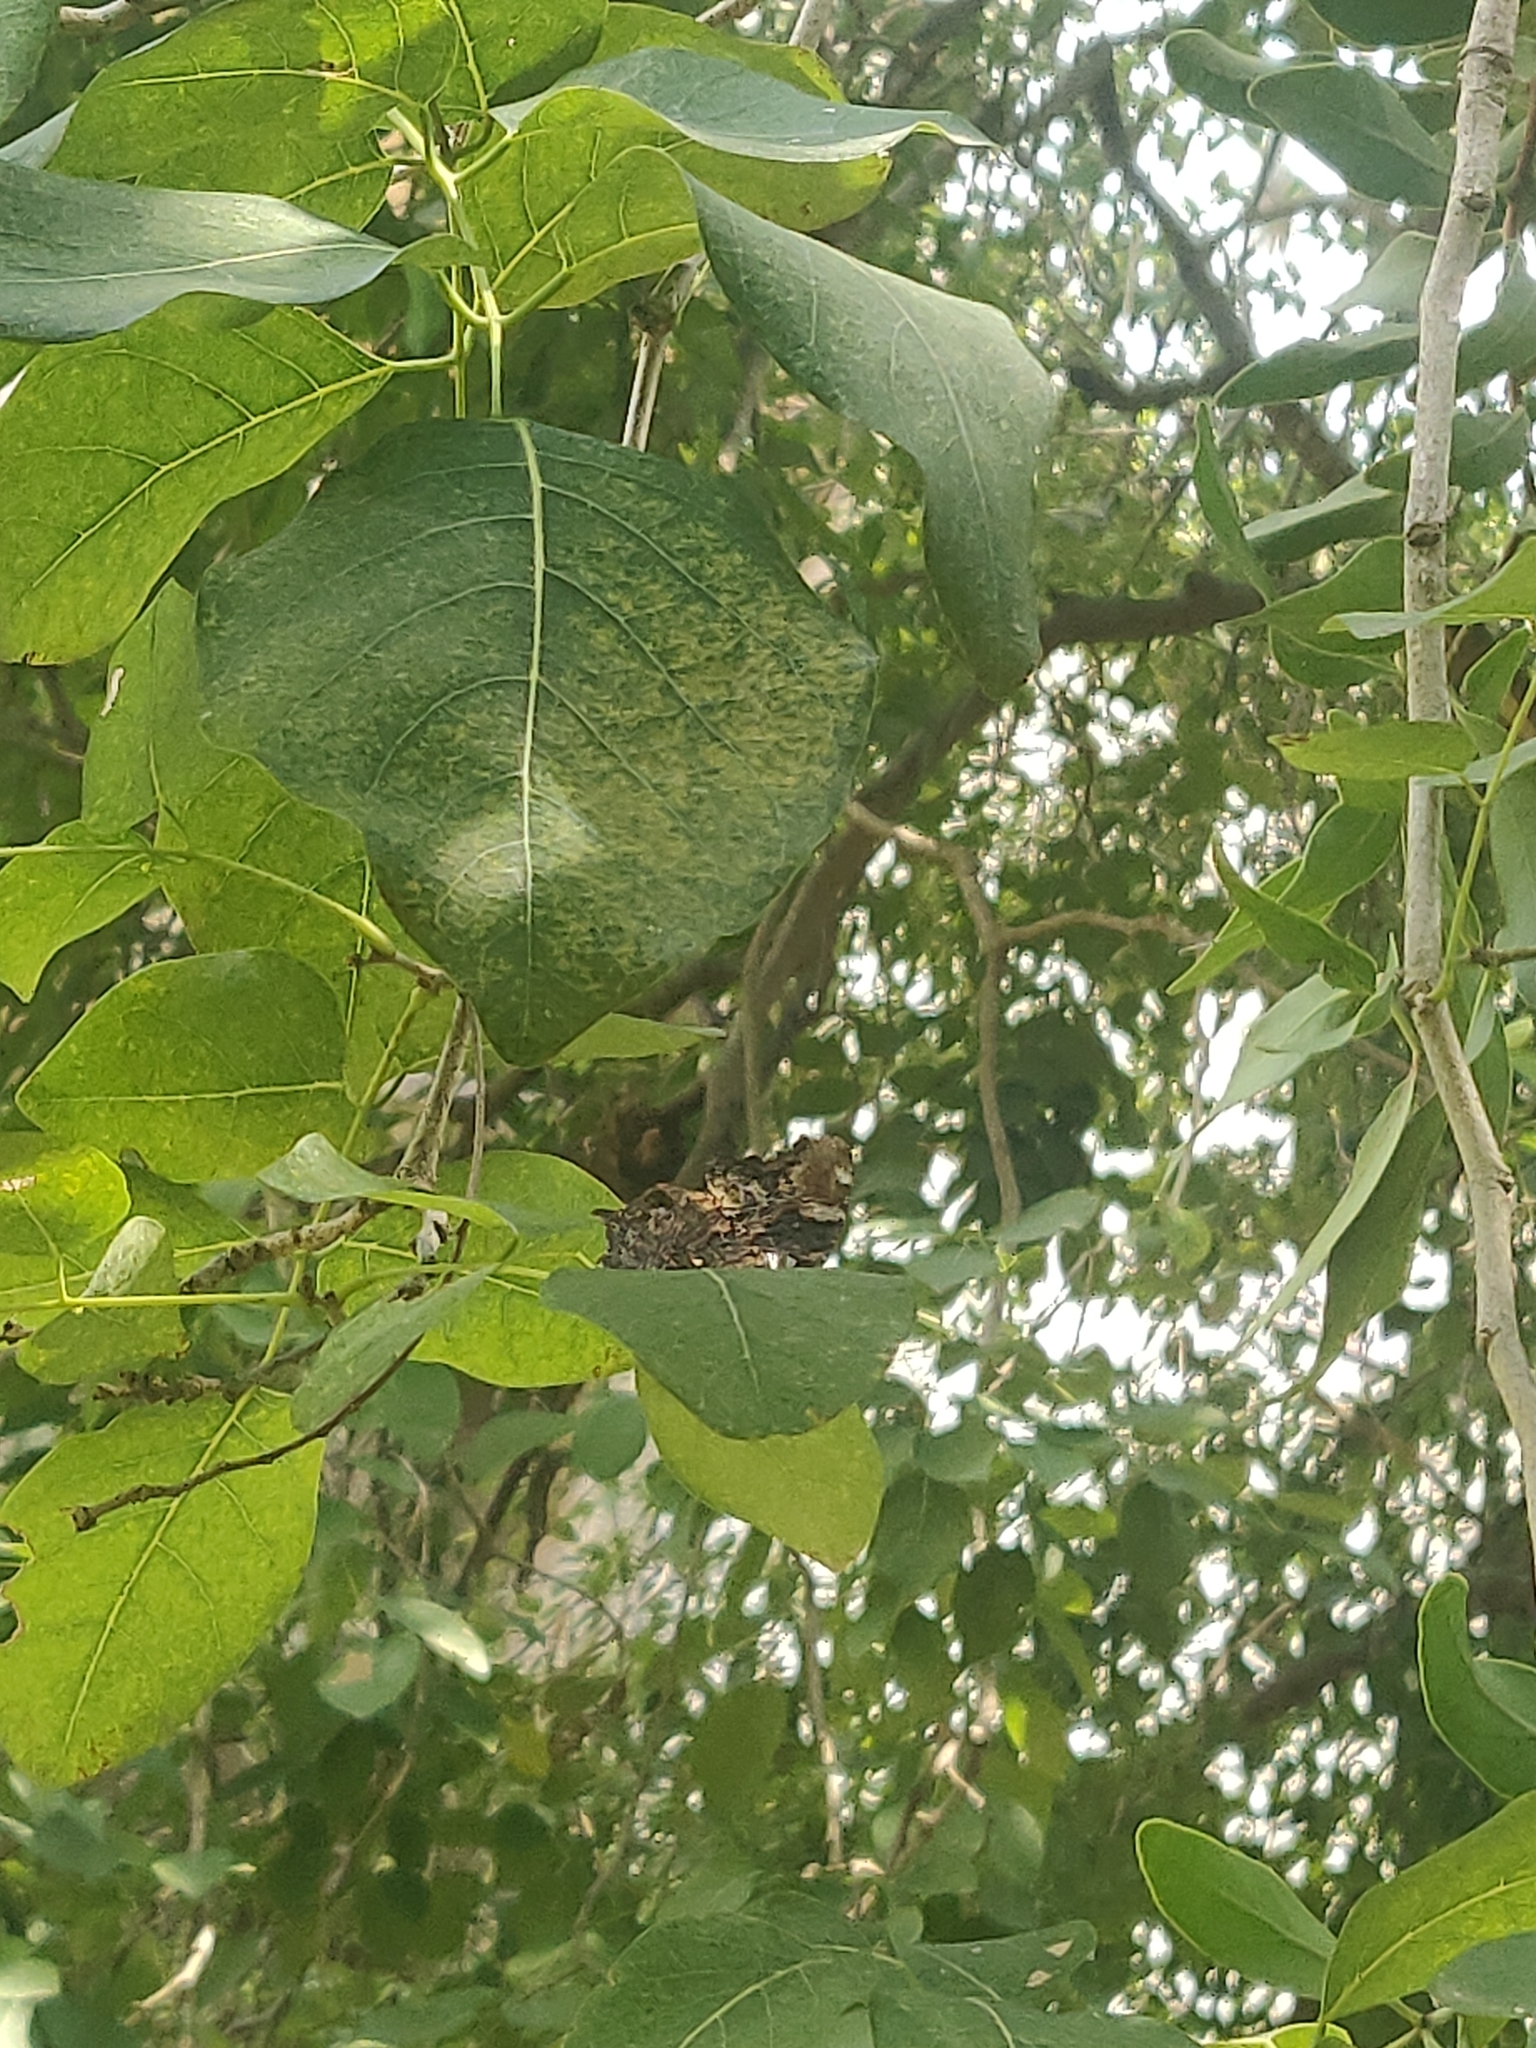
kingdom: Animalia
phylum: Arthropoda
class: Insecta
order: Lepidoptera
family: Nymphalidae
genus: Vanessa
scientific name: Vanessa Kaniska canace
